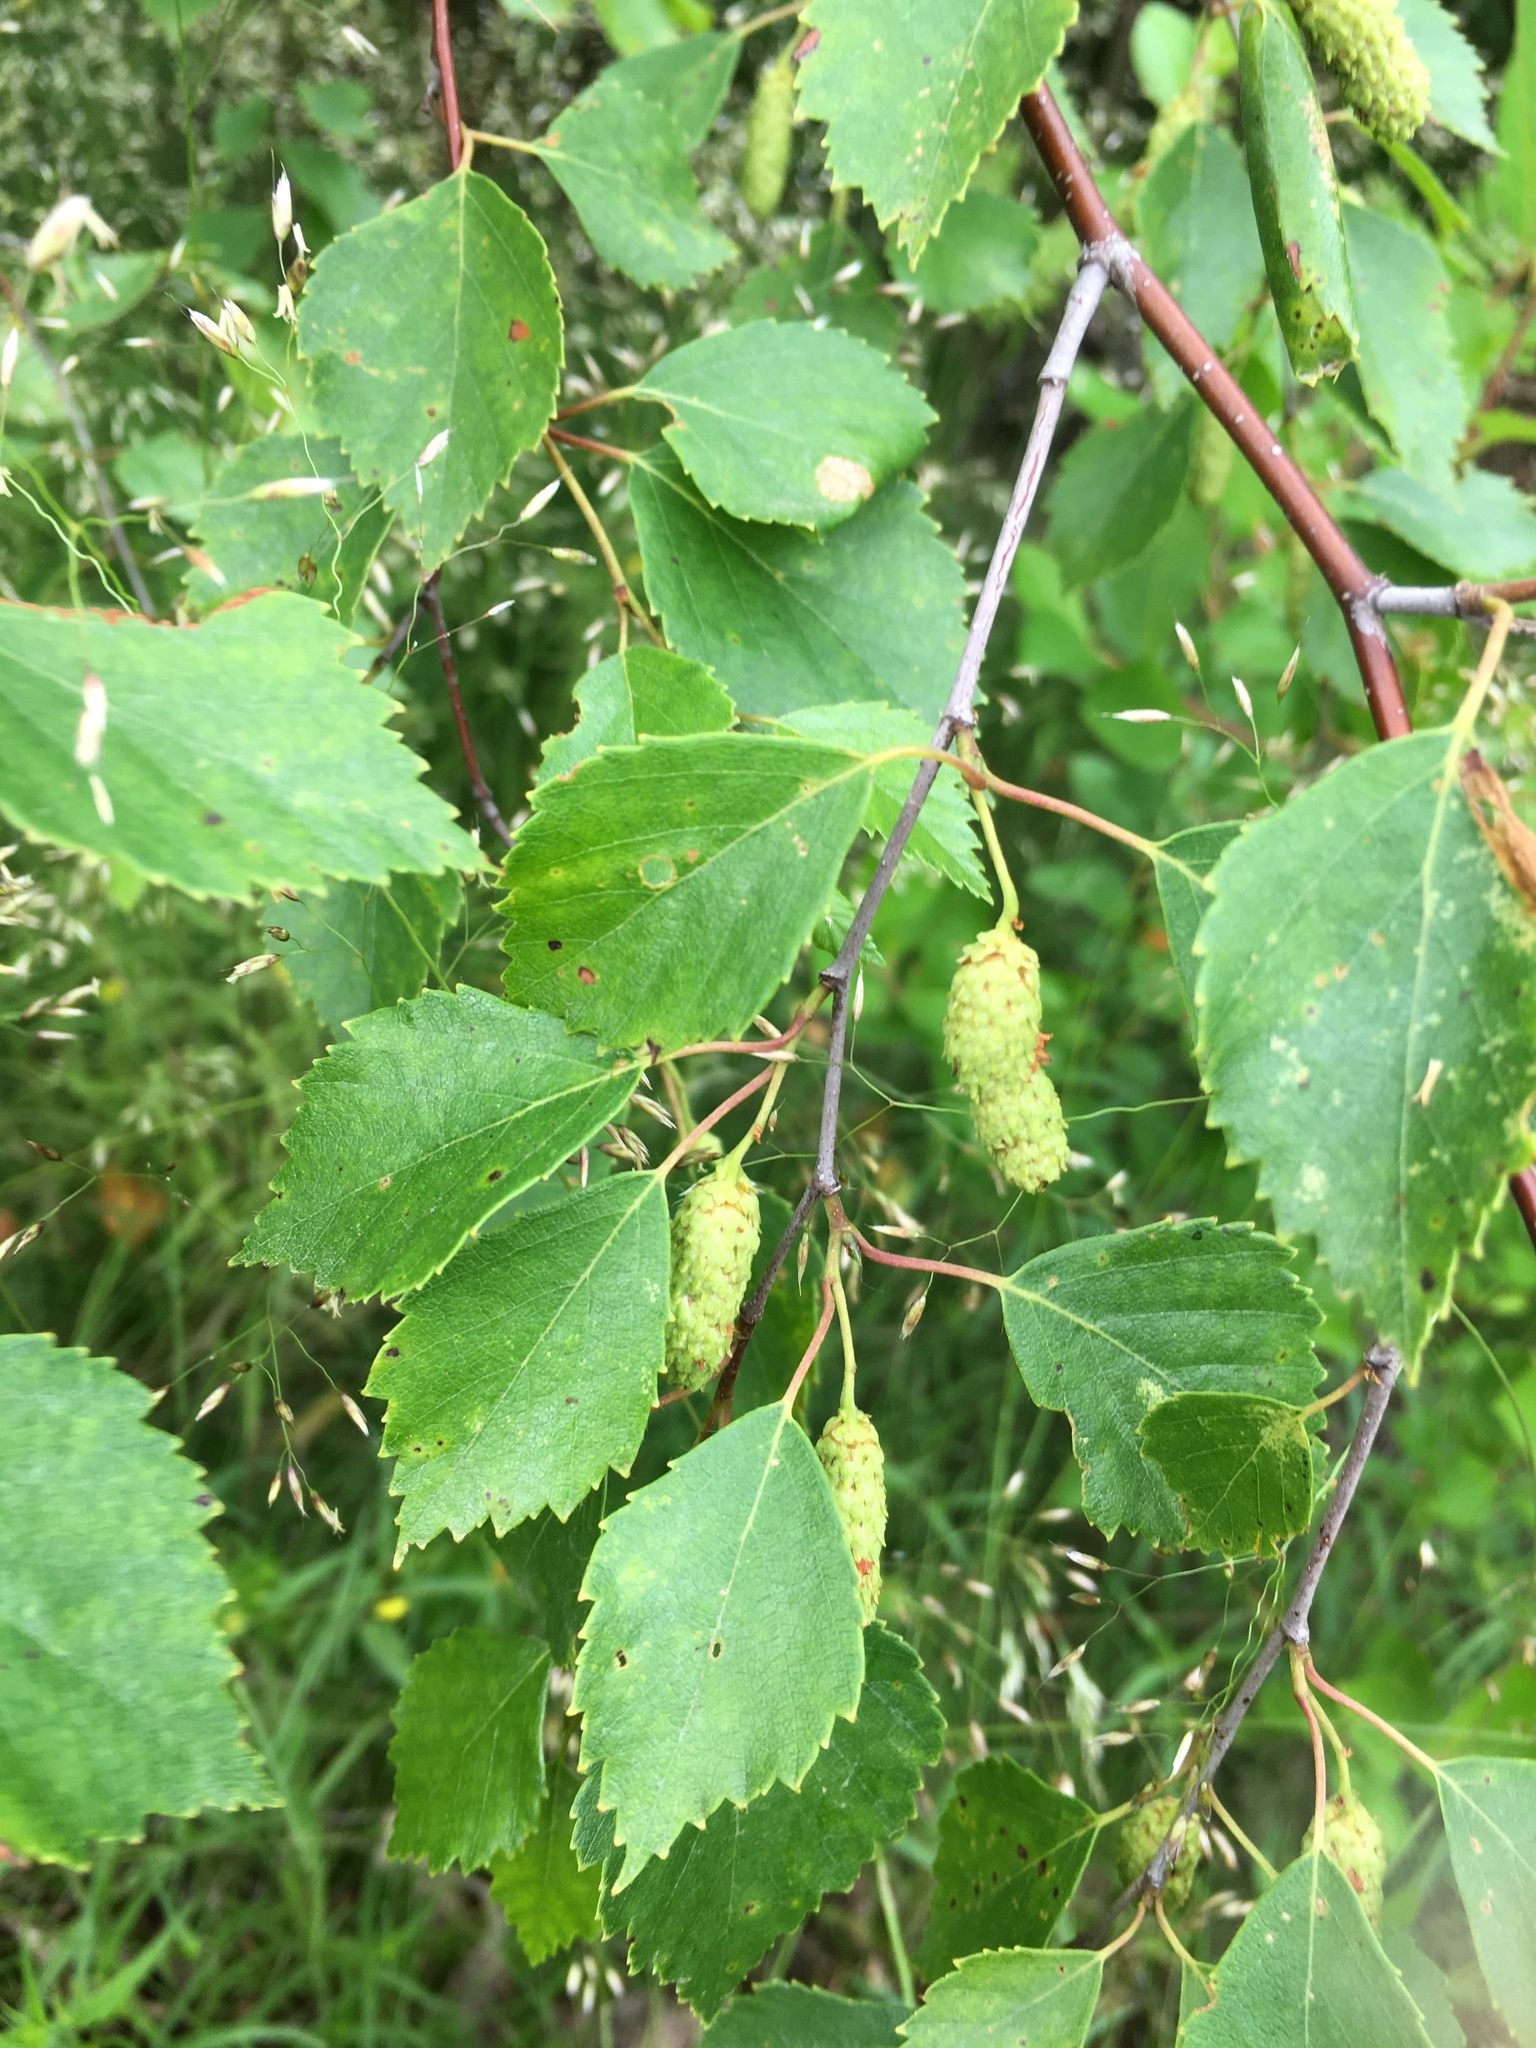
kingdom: Plantae
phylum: Tracheophyta
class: Magnoliopsida
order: Fagales
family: Betulaceae
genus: Betula
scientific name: Betula pendula
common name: Silver birch
